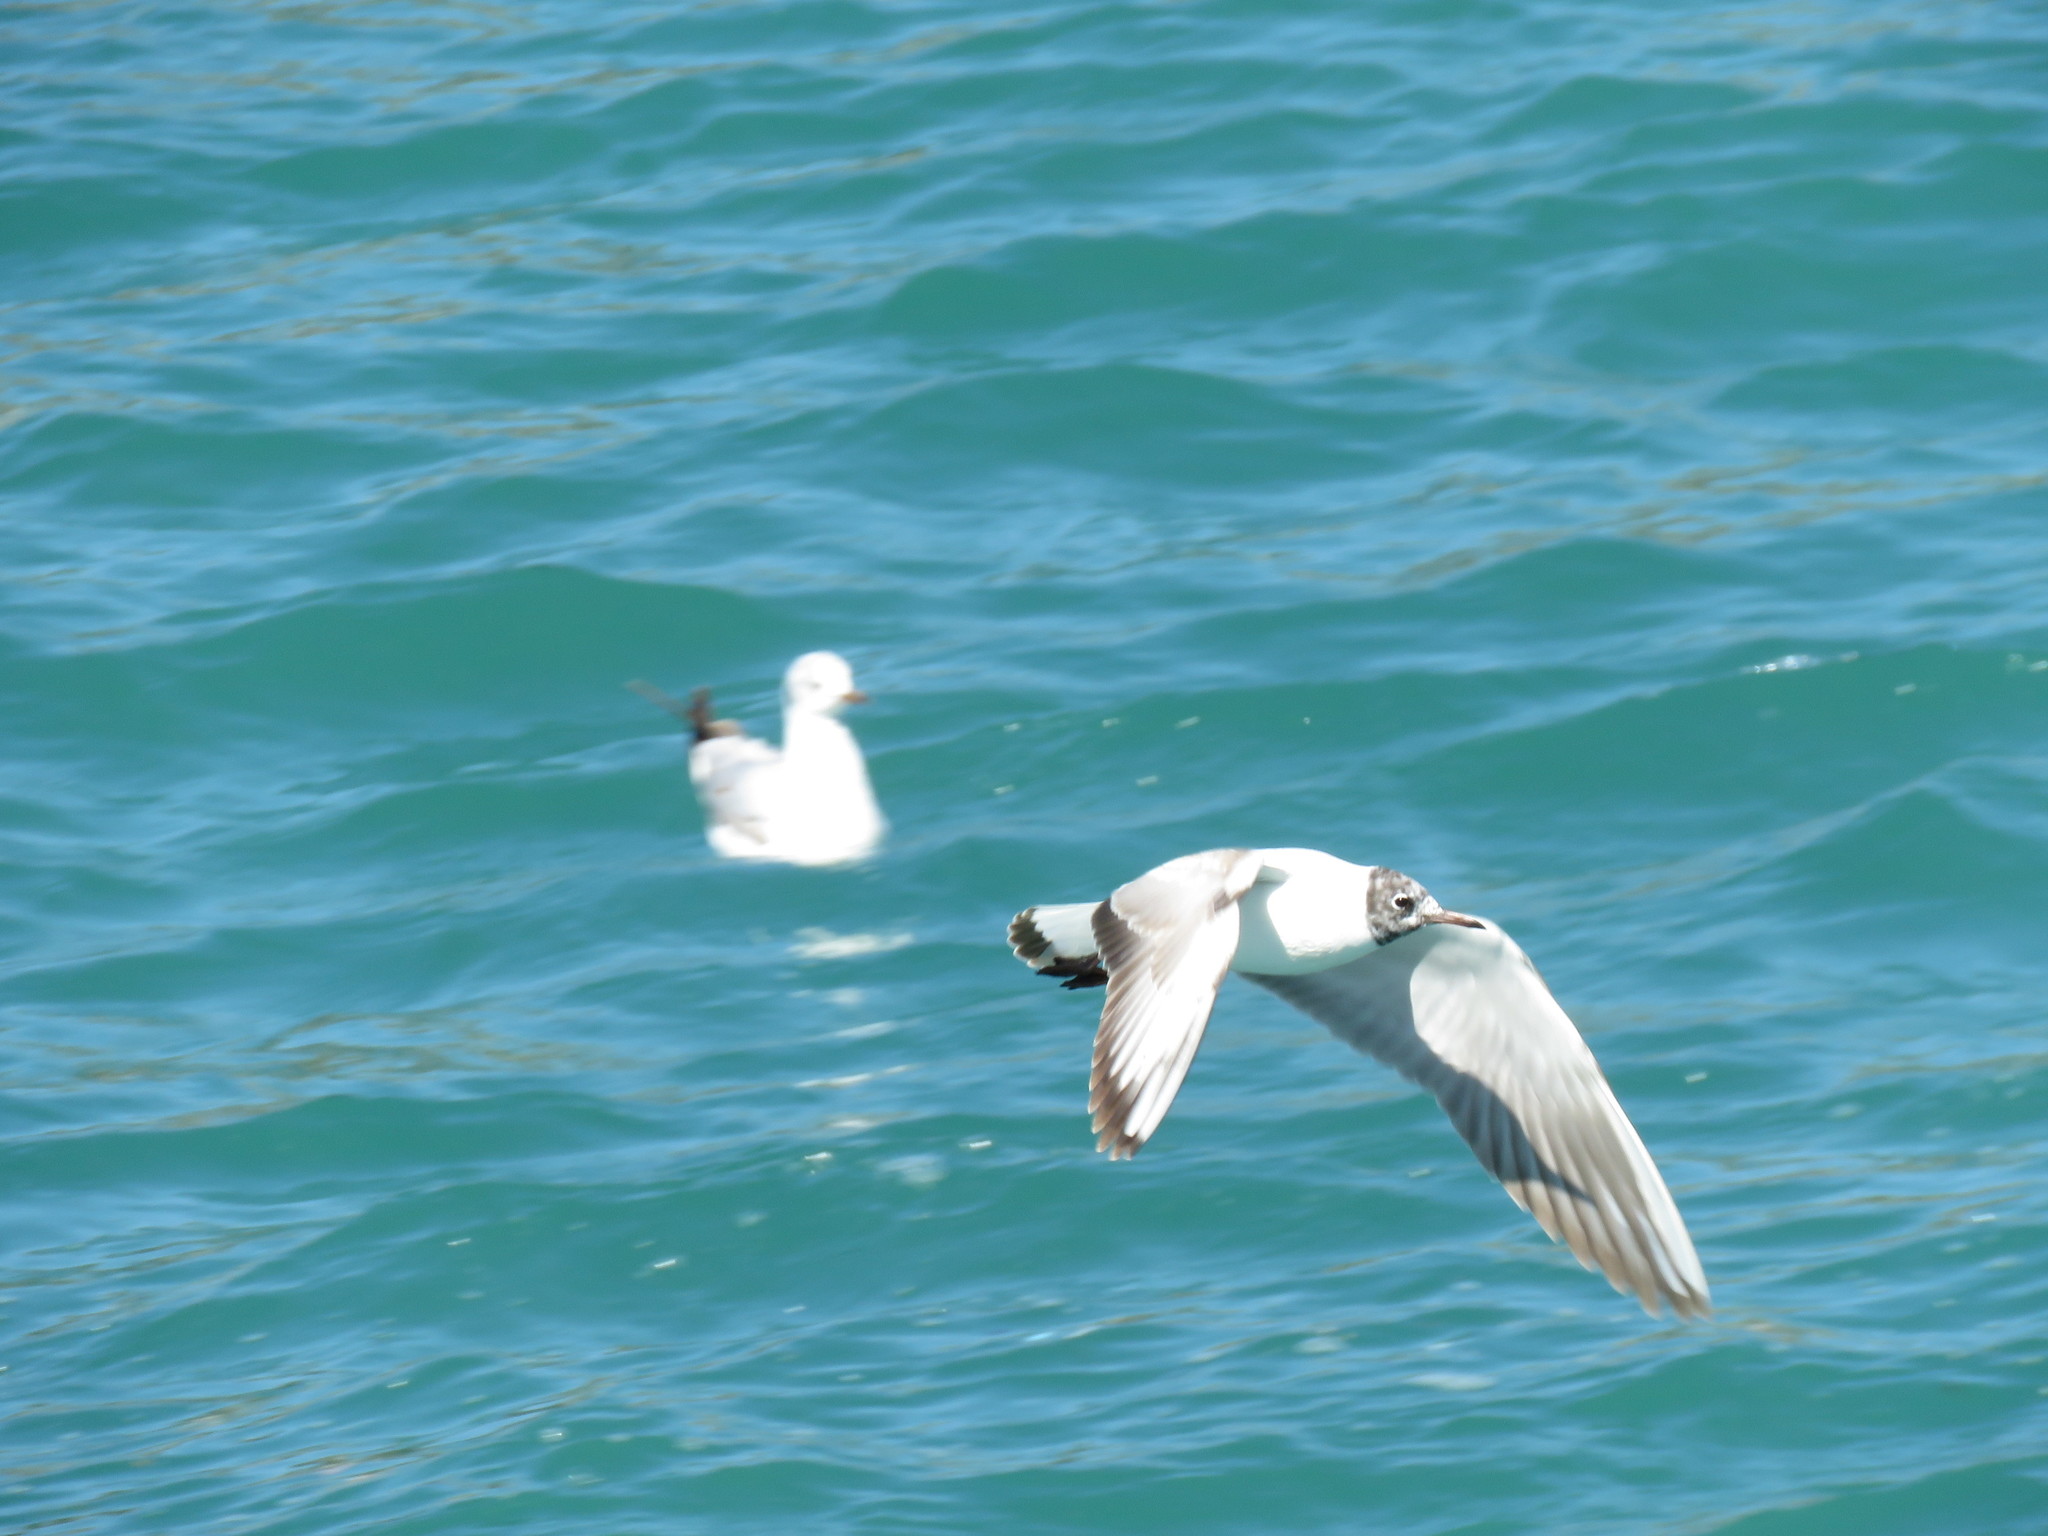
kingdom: Animalia
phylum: Chordata
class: Aves
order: Charadriiformes
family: Laridae
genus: Chroicocephalus
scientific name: Chroicocephalus ridibundus
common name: Black-headed gull
